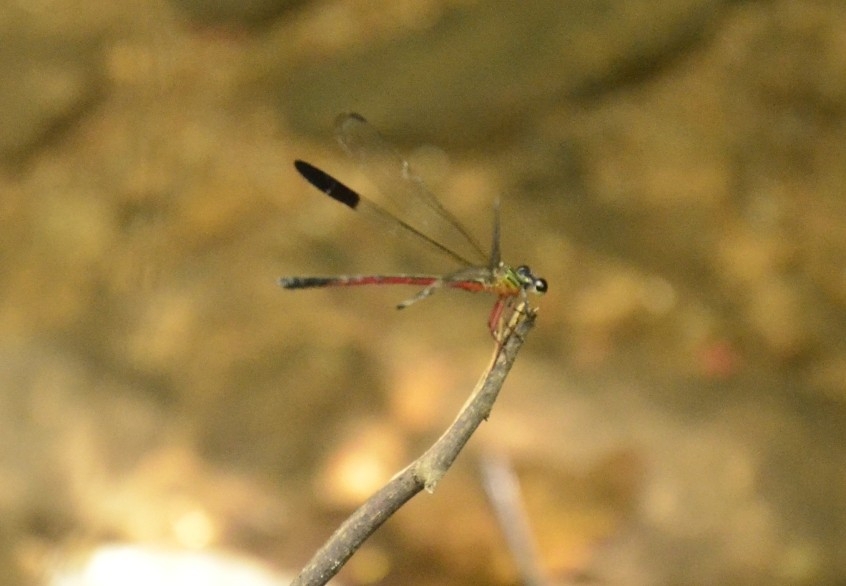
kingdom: Animalia
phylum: Arthropoda
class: Insecta
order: Odonata
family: Euphaeidae
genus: Euphaea
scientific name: Euphaea fraseri
